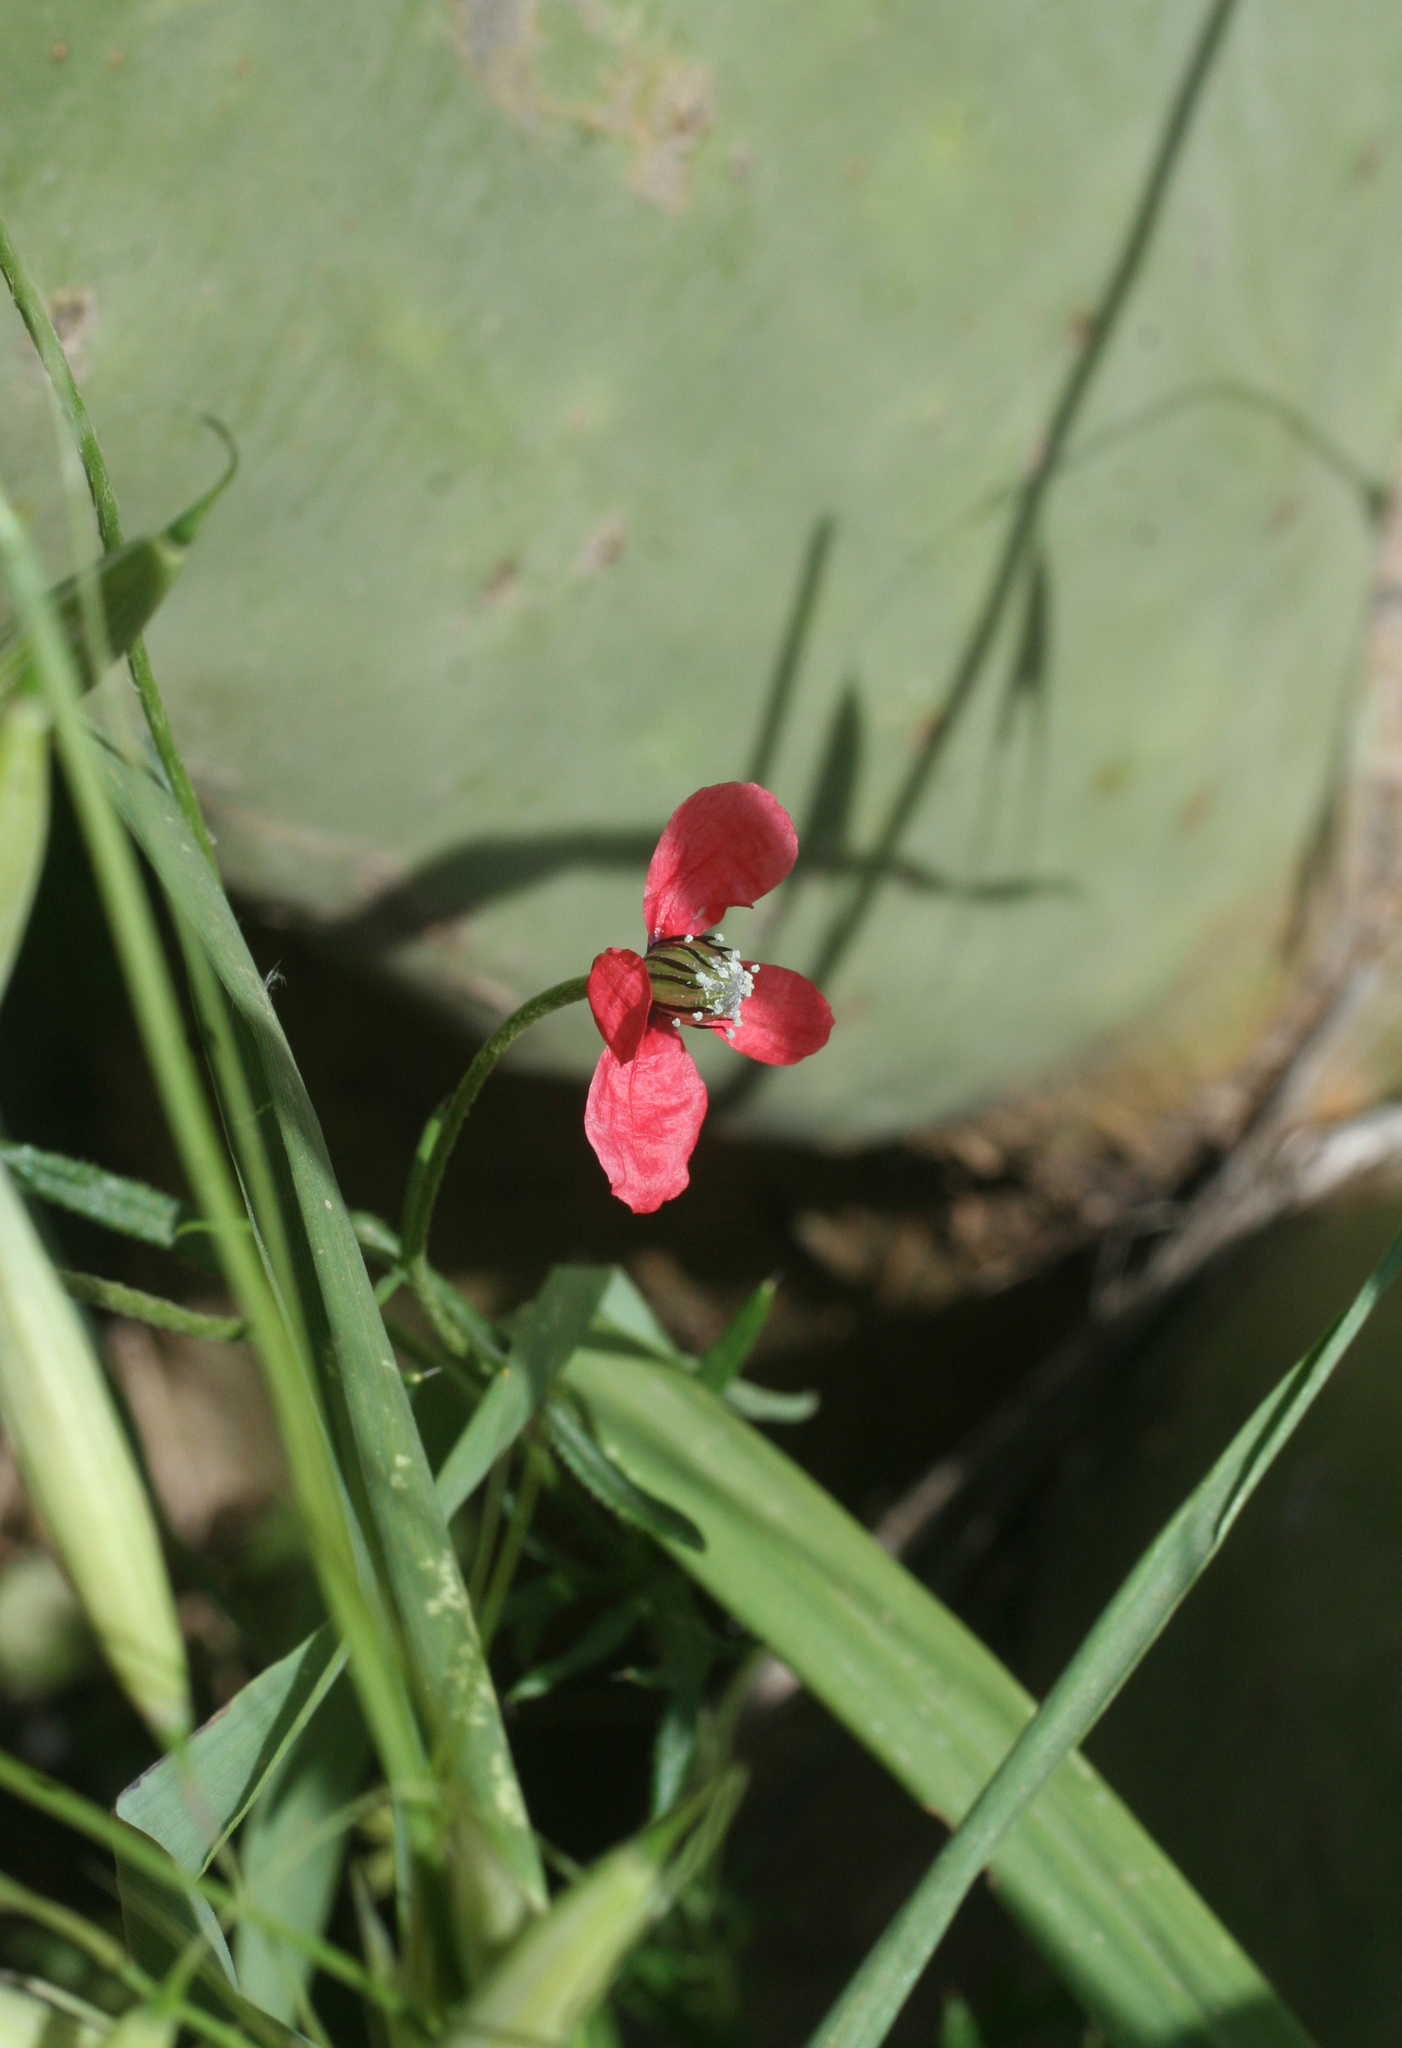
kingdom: Plantae
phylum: Tracheophyta
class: Magnoliopsida
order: Ranunculales
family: Papaveraceae
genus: Roemeria
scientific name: Roemeria hispida
